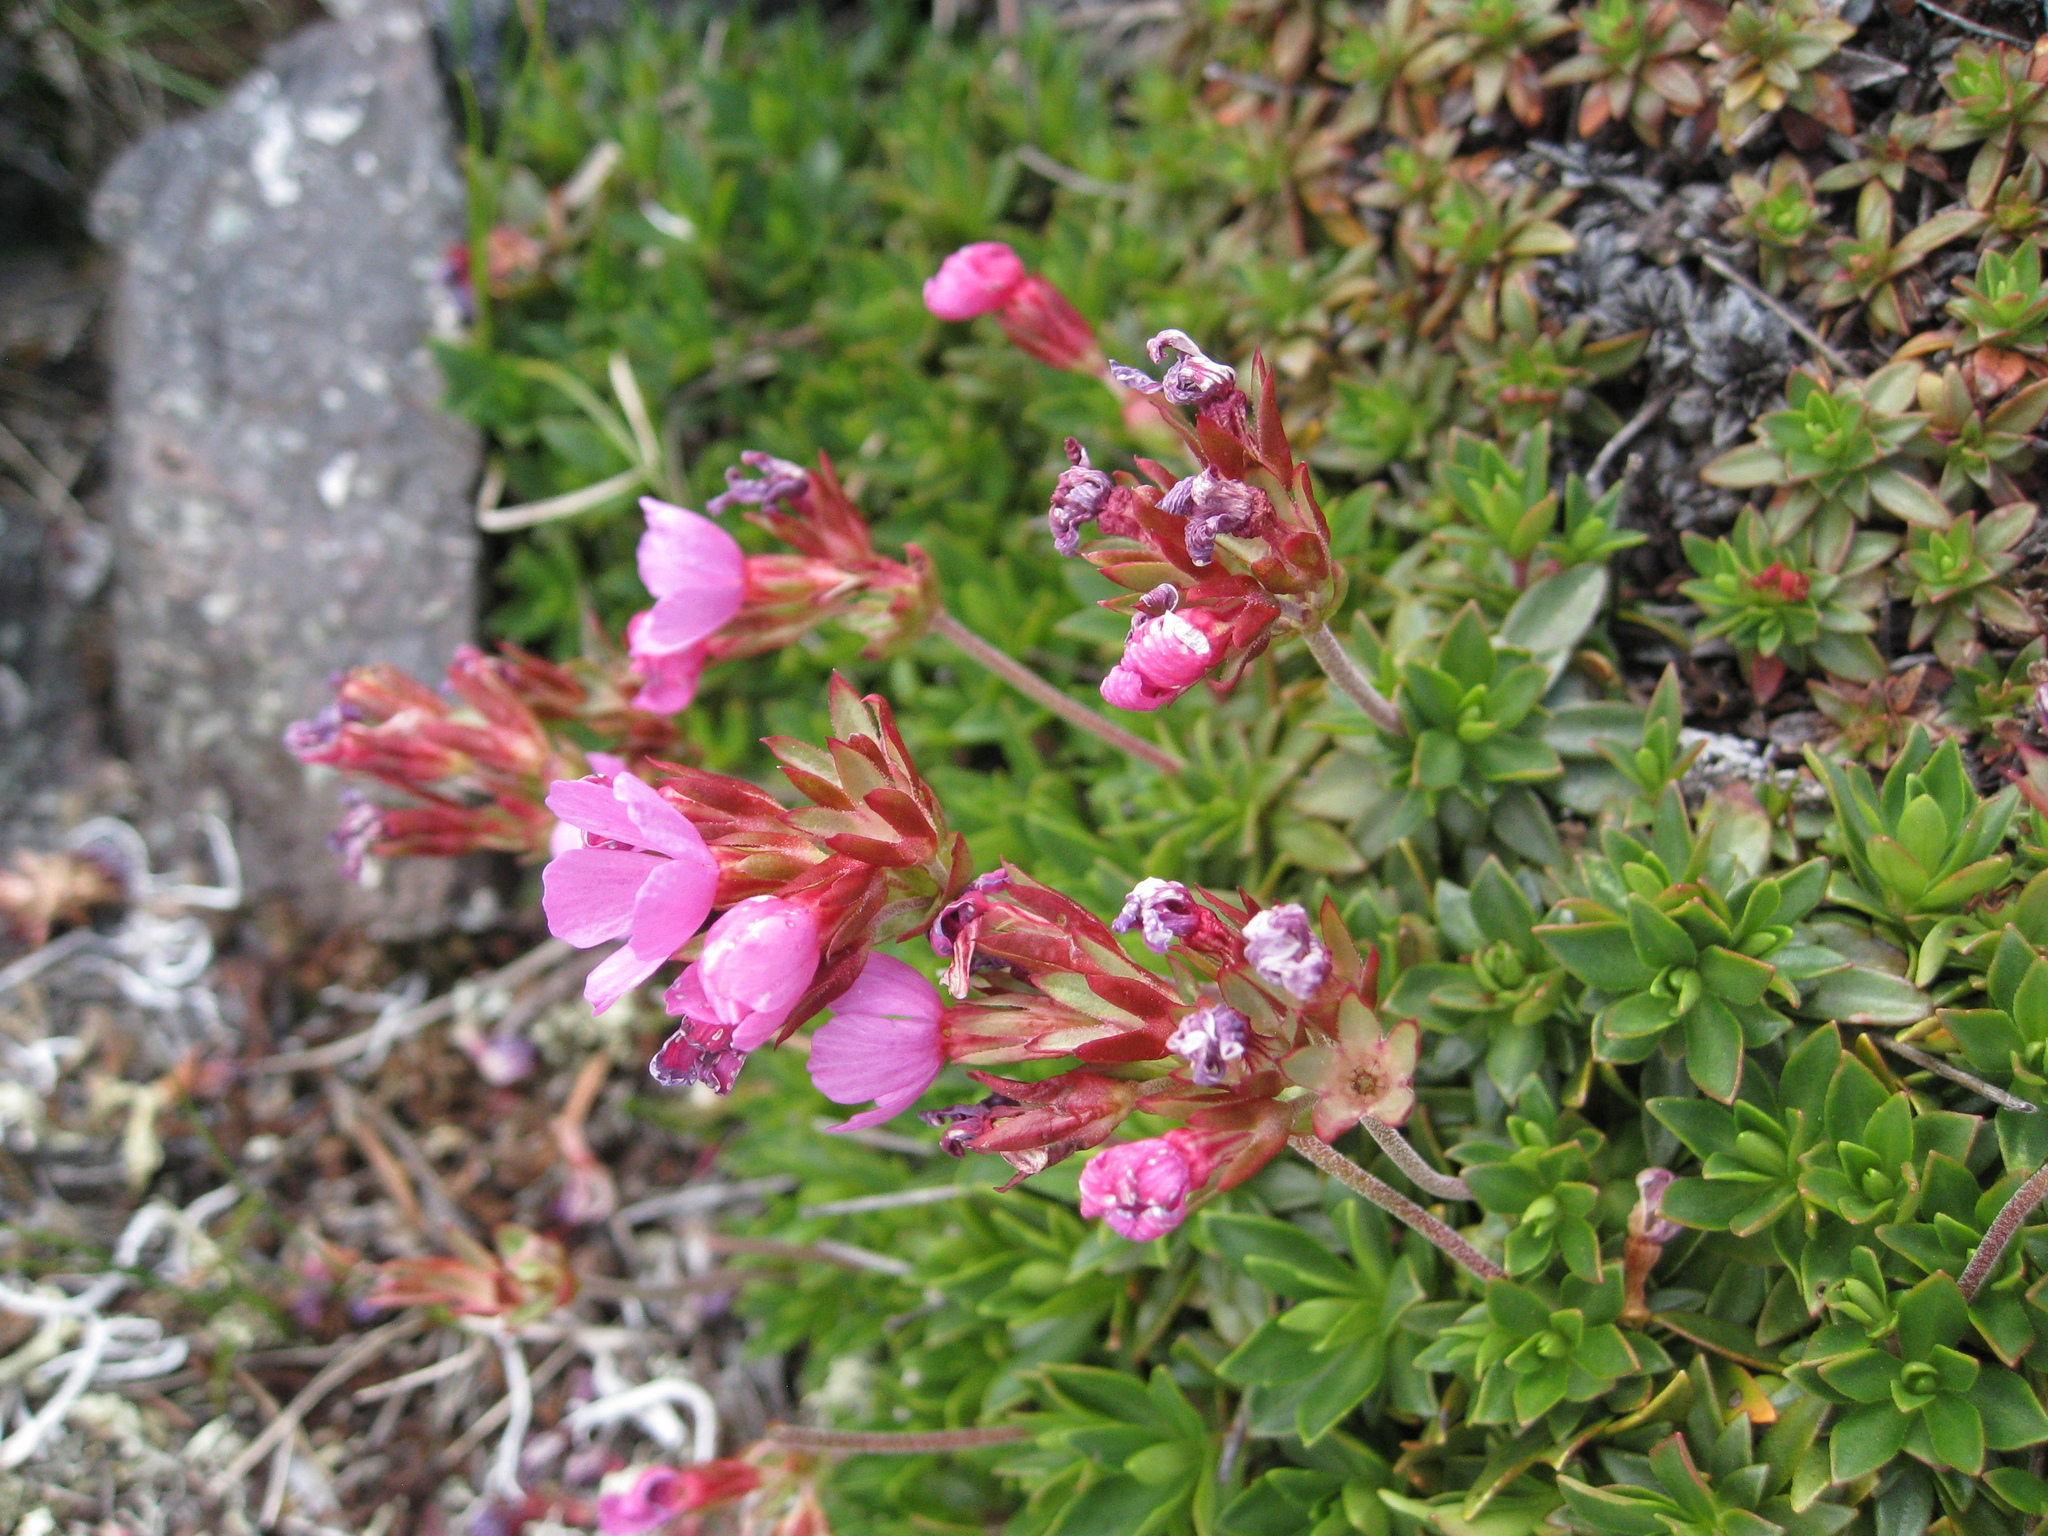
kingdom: Plantae
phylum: Tracheophyta
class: Magnoliopsida
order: Ericales
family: Primulaceae
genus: Androsace
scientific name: Androsace laevigata
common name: Cliff dwarf-primrose
